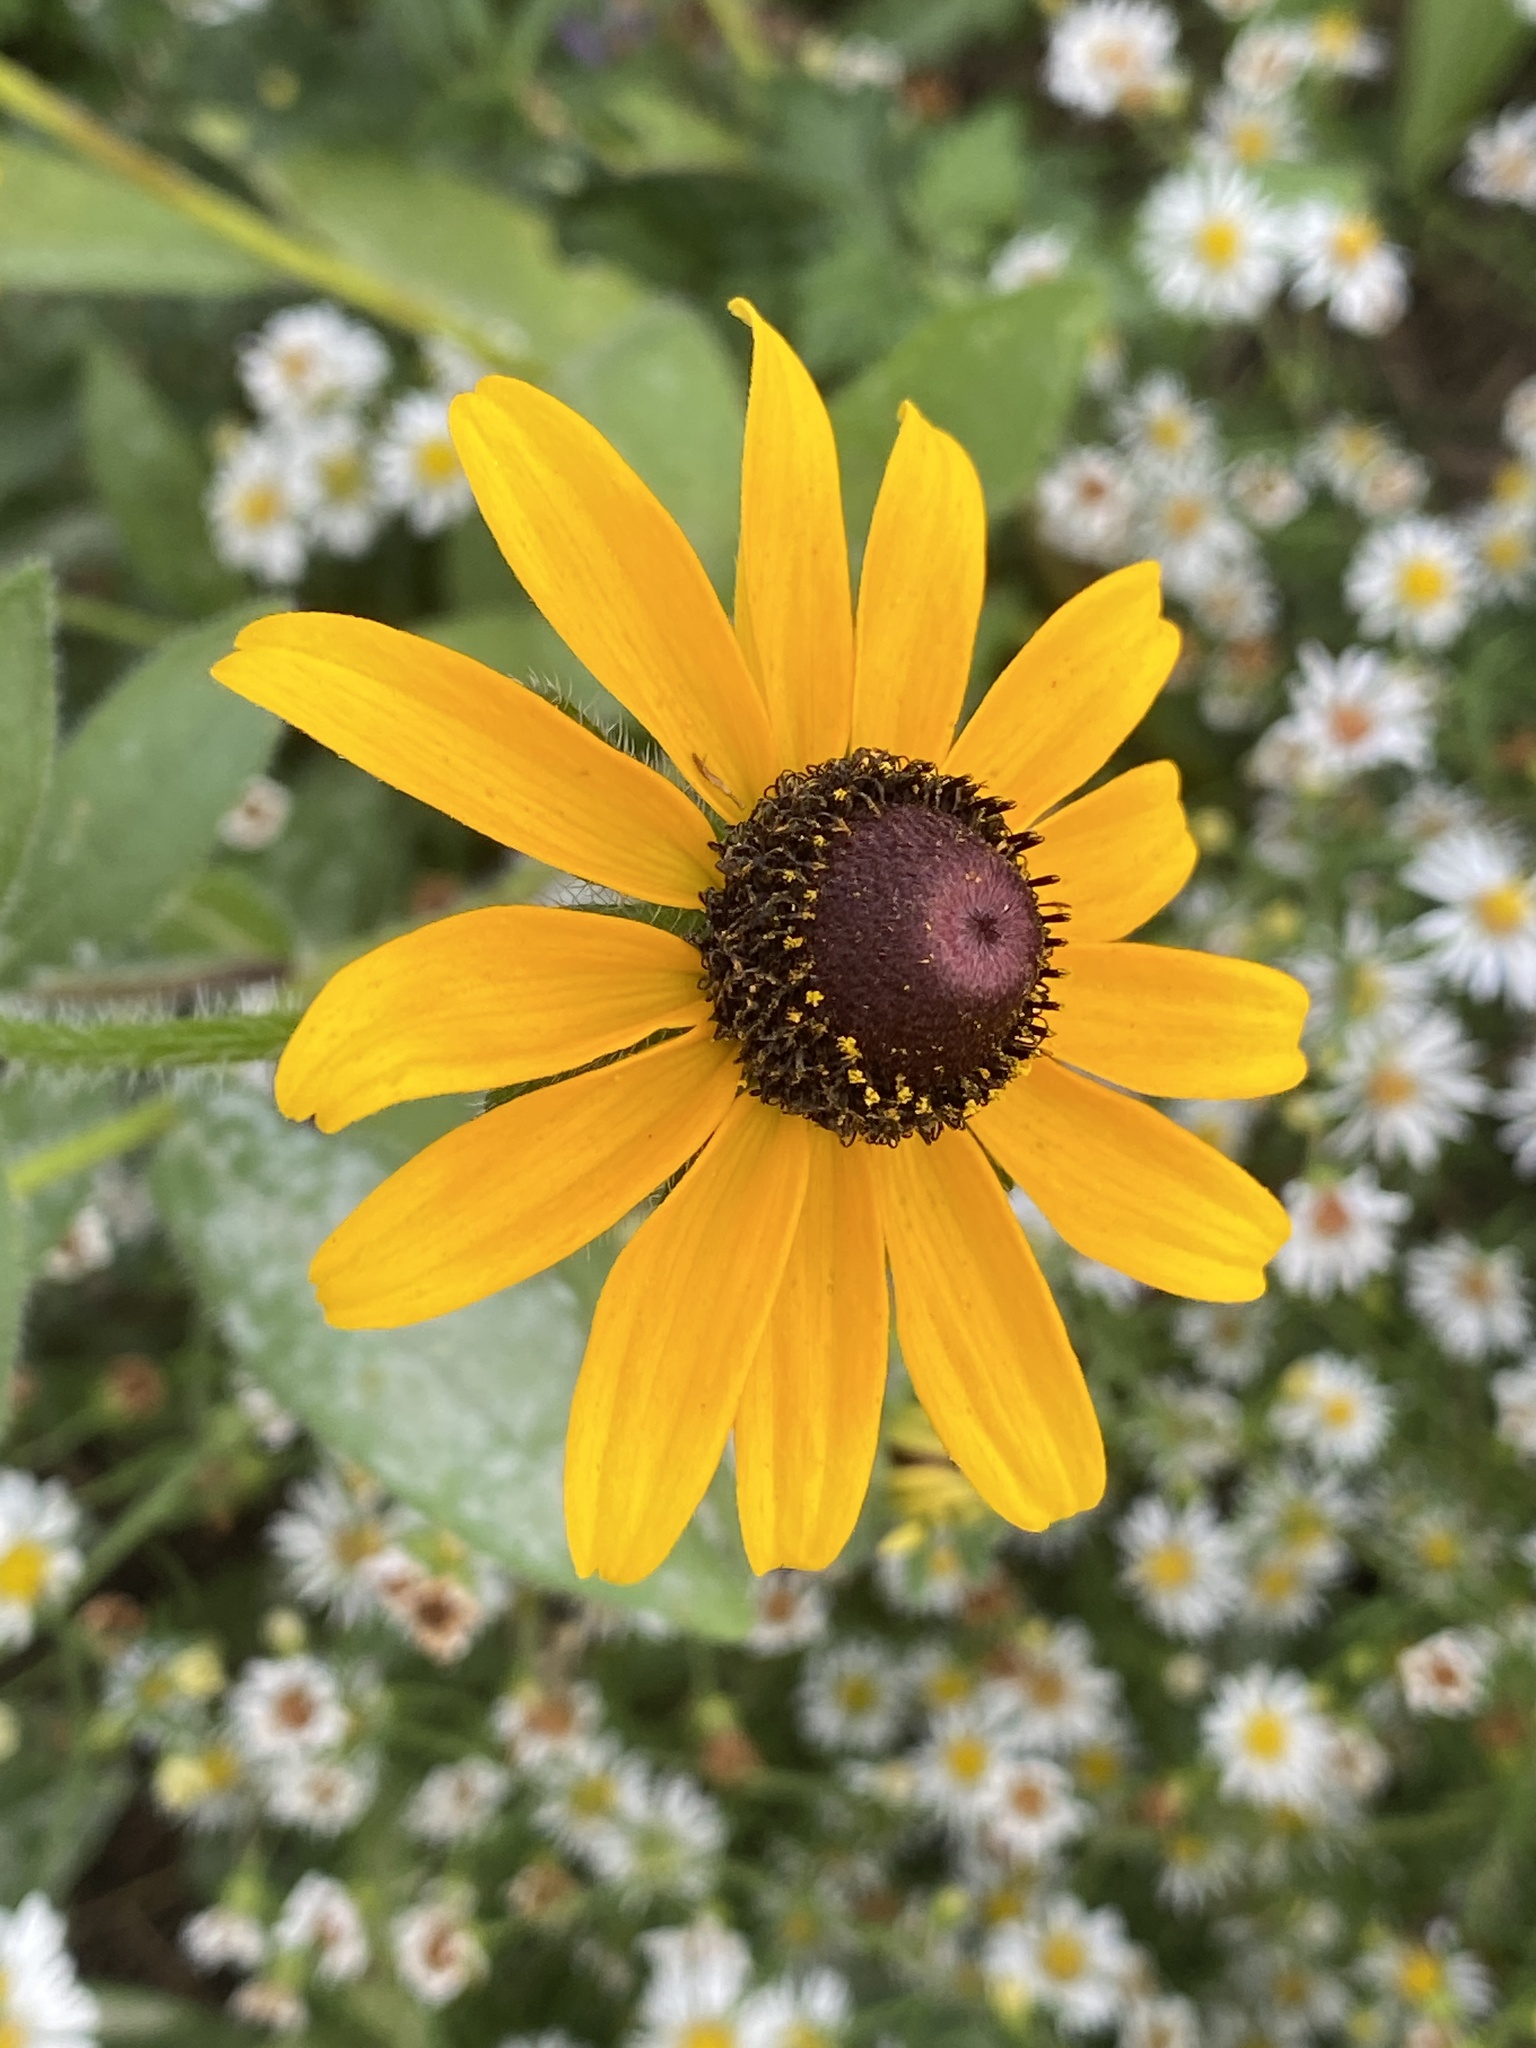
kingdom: Plantae
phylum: Tracheophyta
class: Magnoliopsida
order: Asterales
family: Asteraceae
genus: Rudbeckia
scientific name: Rudbeckia hirta
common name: Black-eyed-susan
